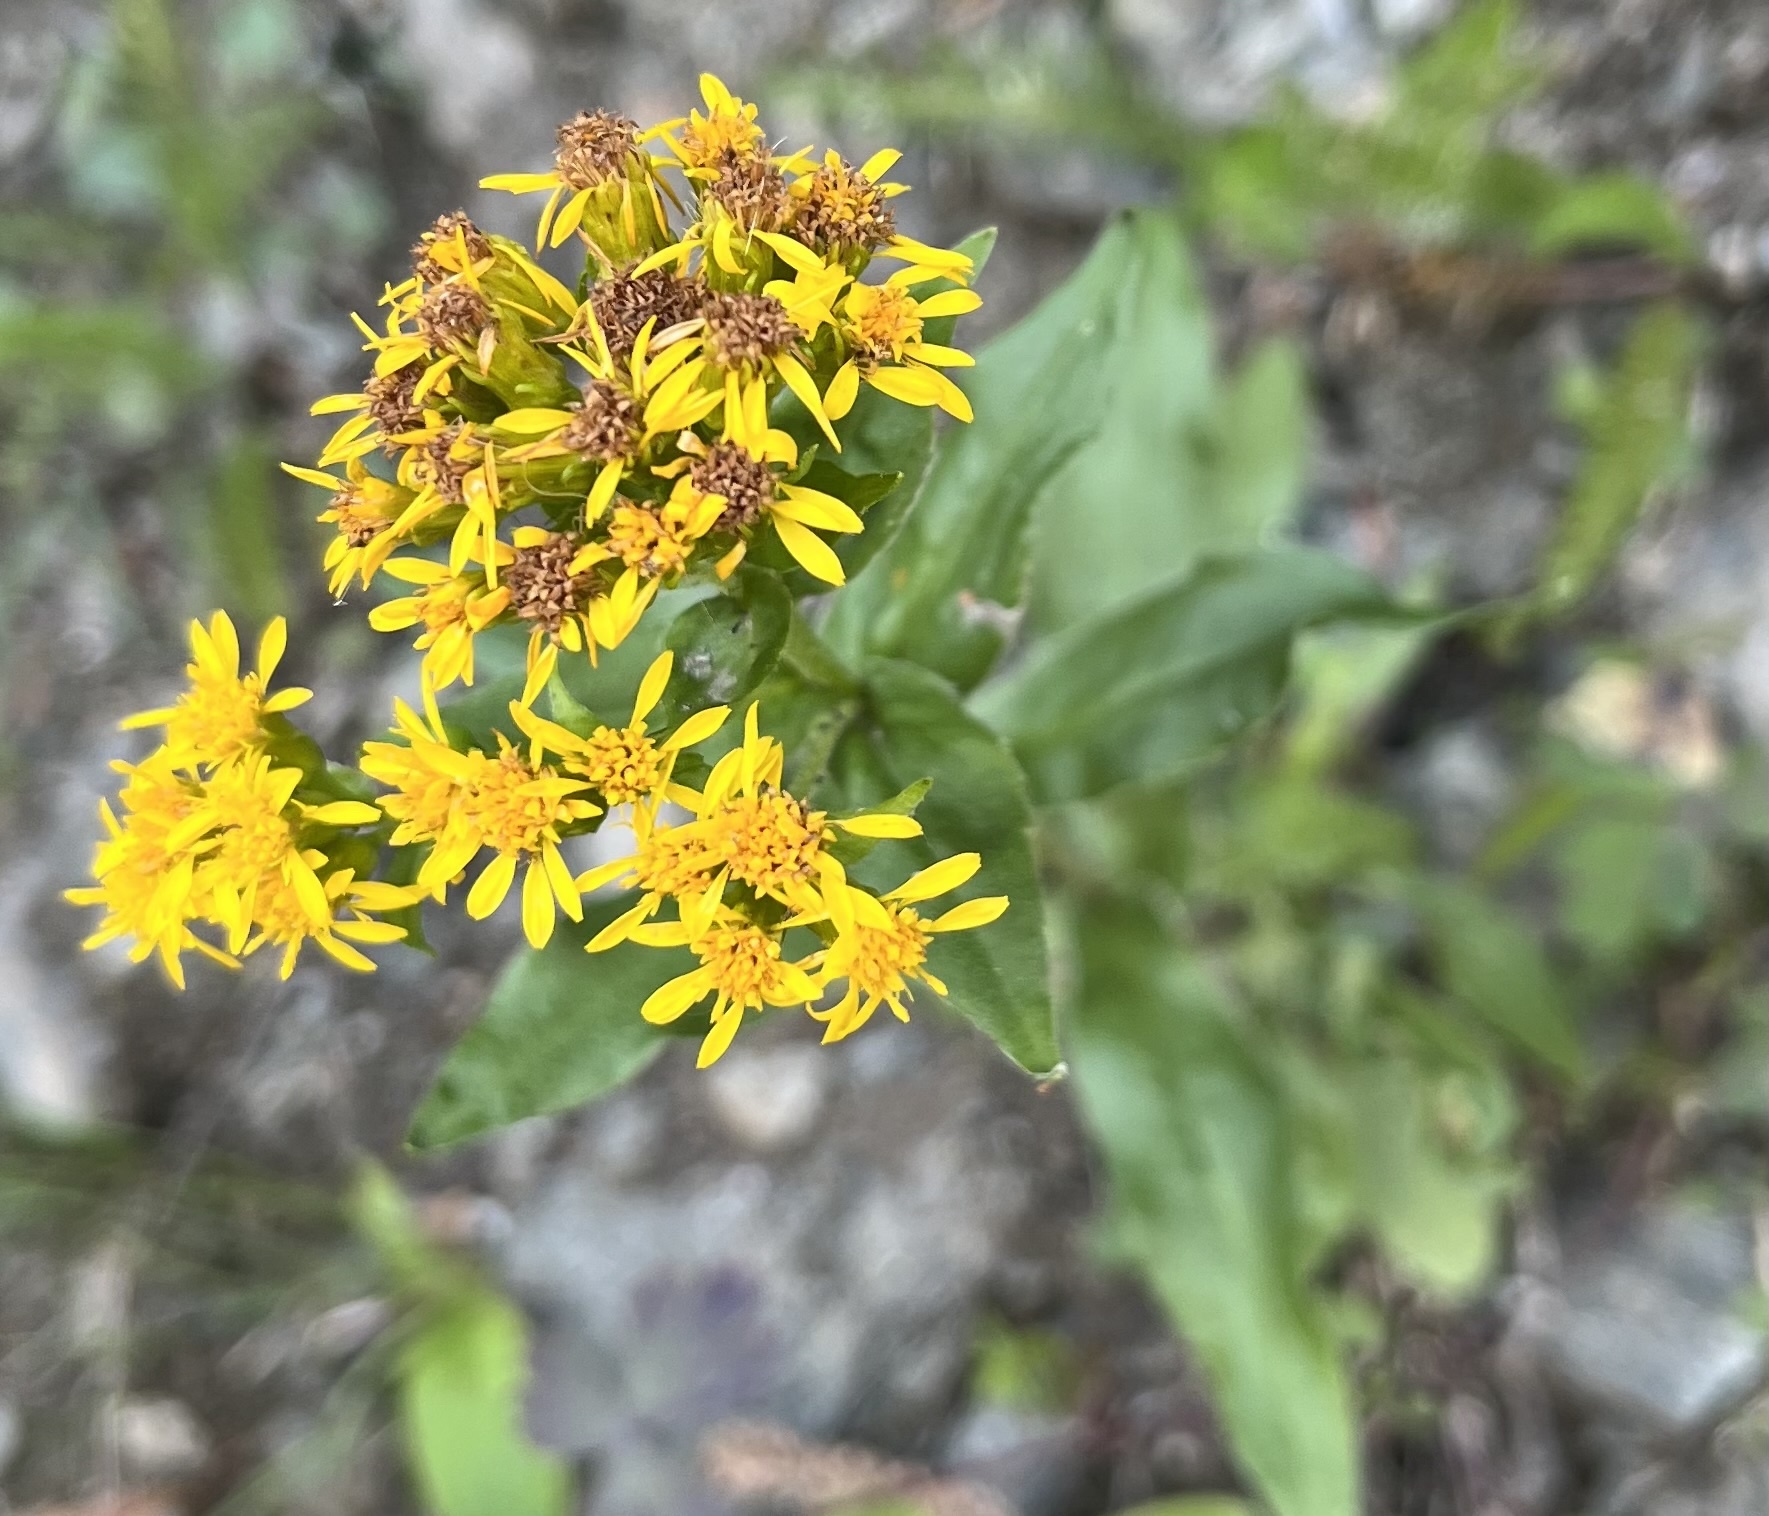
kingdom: Plantae
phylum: Tracheophyta
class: Magnoliopsida
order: Asterales
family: Asteraceae
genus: Solidago
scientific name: Solidago multiradiata
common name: Northern goldenrod
